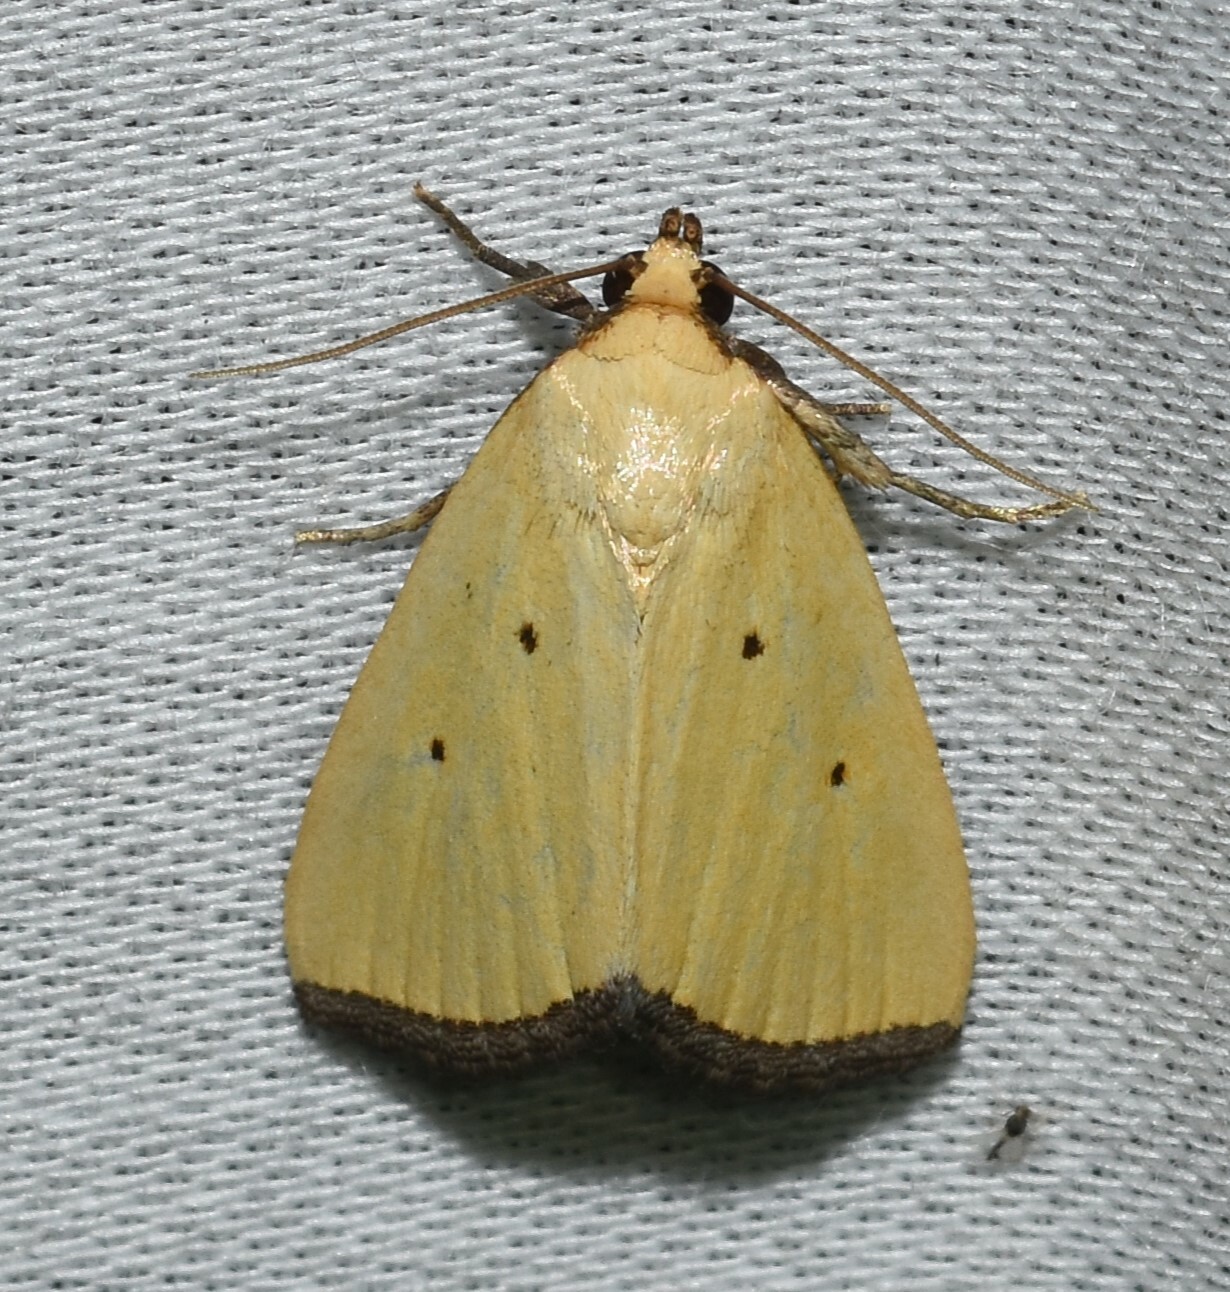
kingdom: Animalia
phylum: Arthropoda
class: Insecta
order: Lepidoptera
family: Noctuidae
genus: Marimatha
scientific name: Marimatha nigrofimbria
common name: Black-bordered lemon moth
